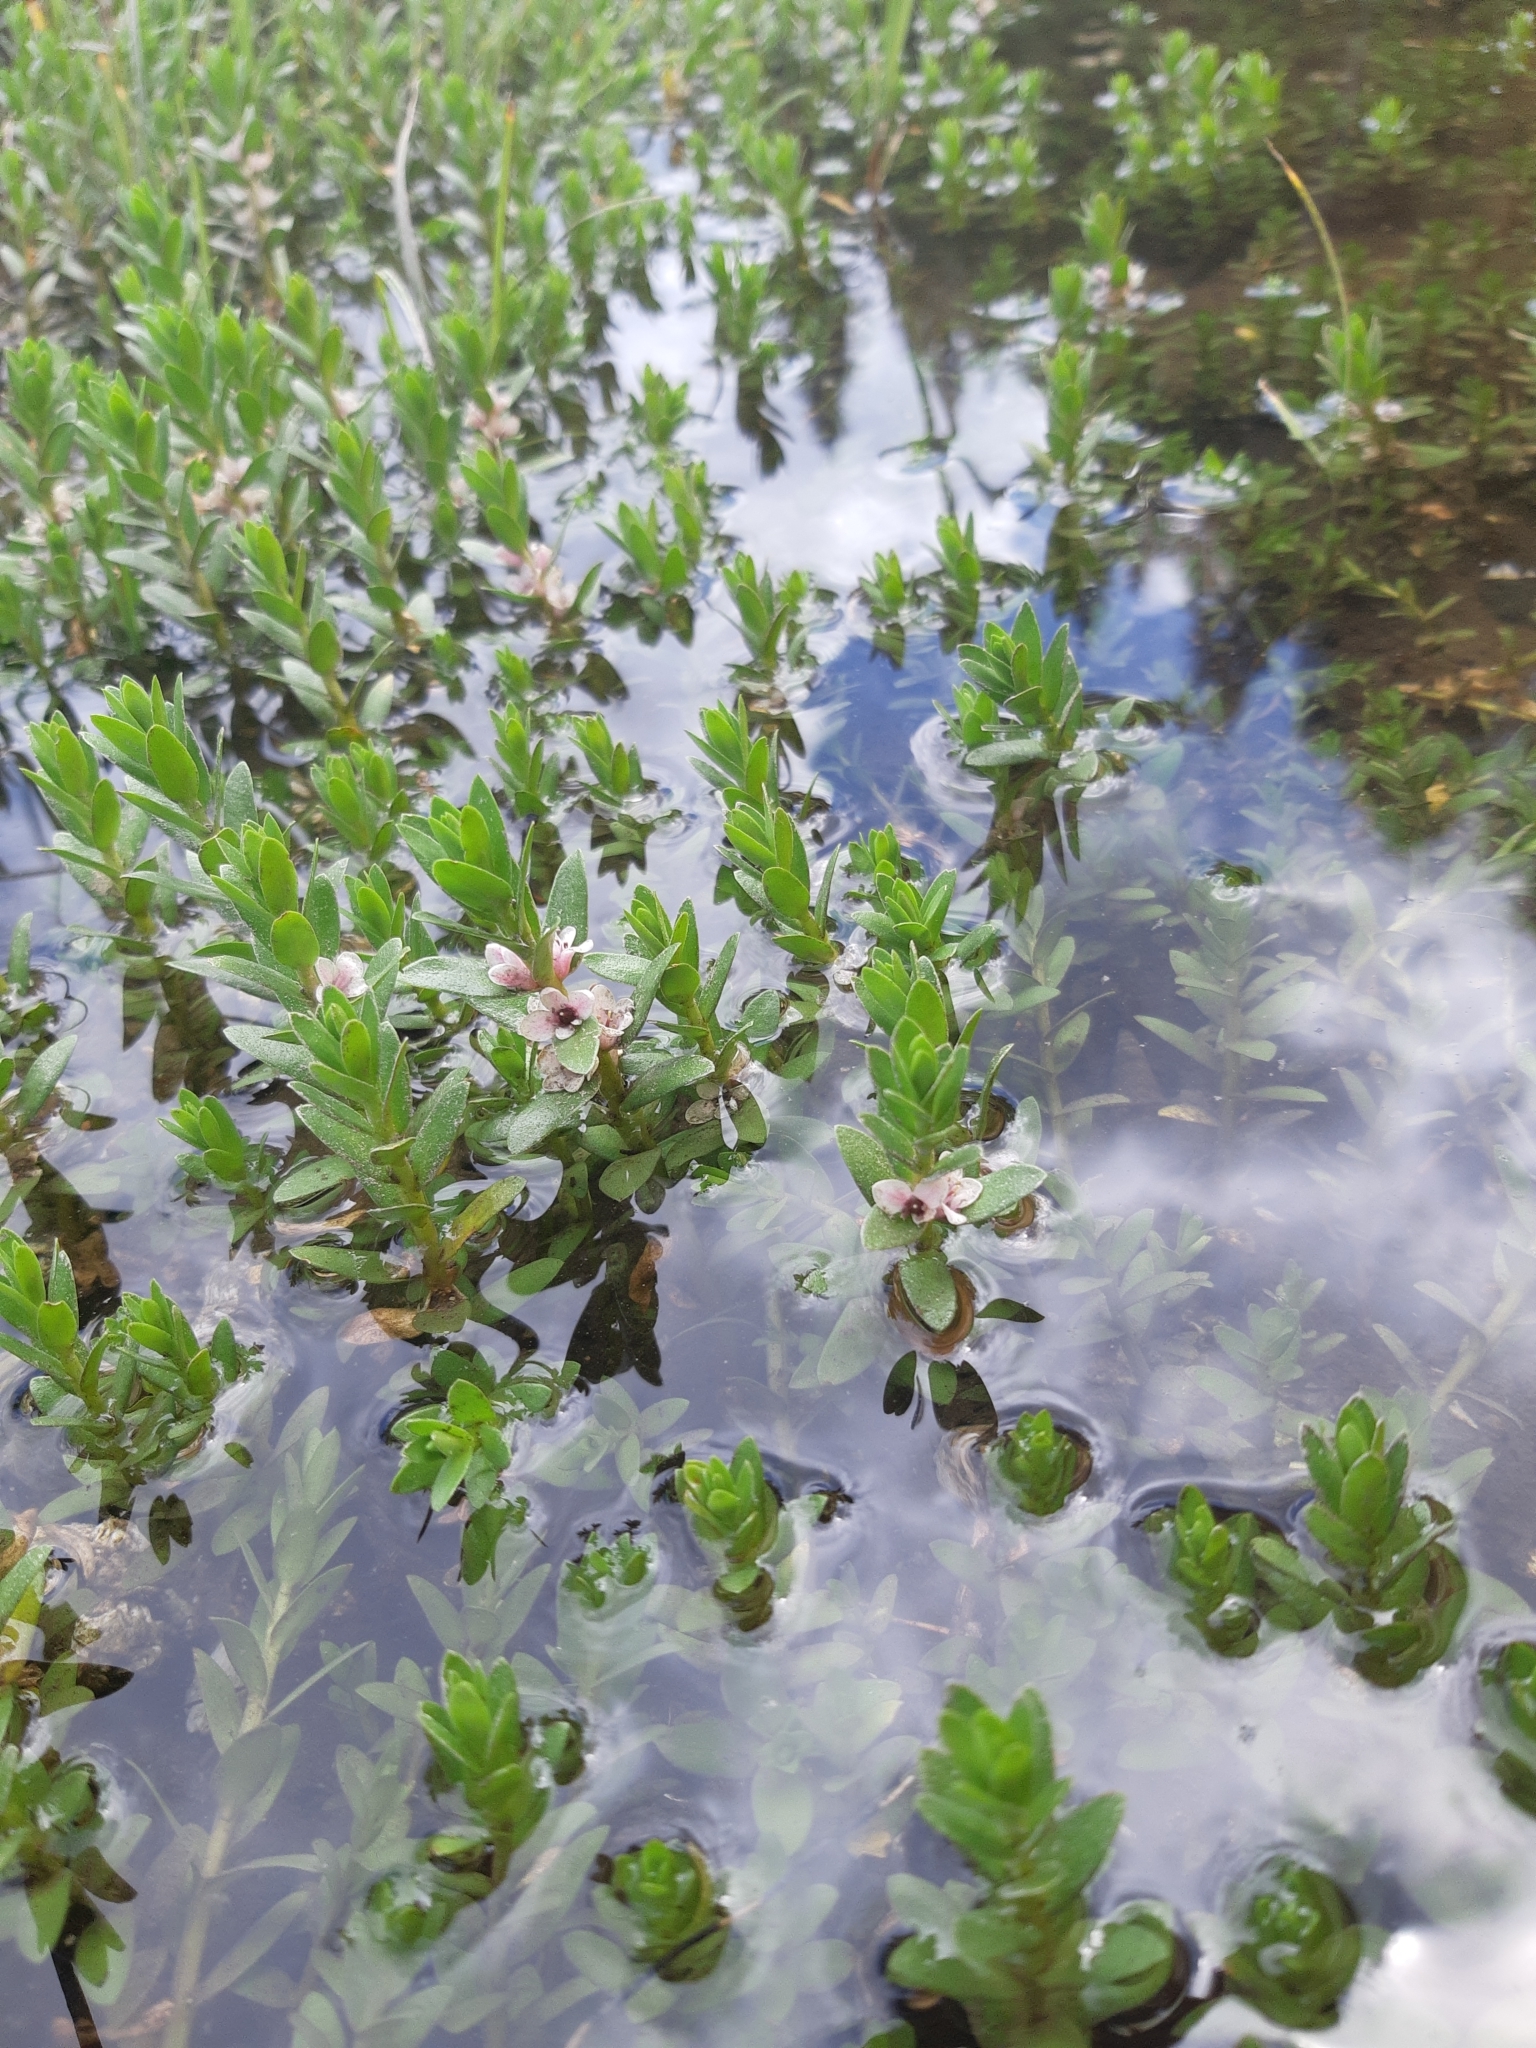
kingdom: Plantae
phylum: Tracheophyta
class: Magnoliopsida
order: Ericales
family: Primulaceae
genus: Lysimachia
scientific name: Lysimachia maritima
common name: Sea milkwort
